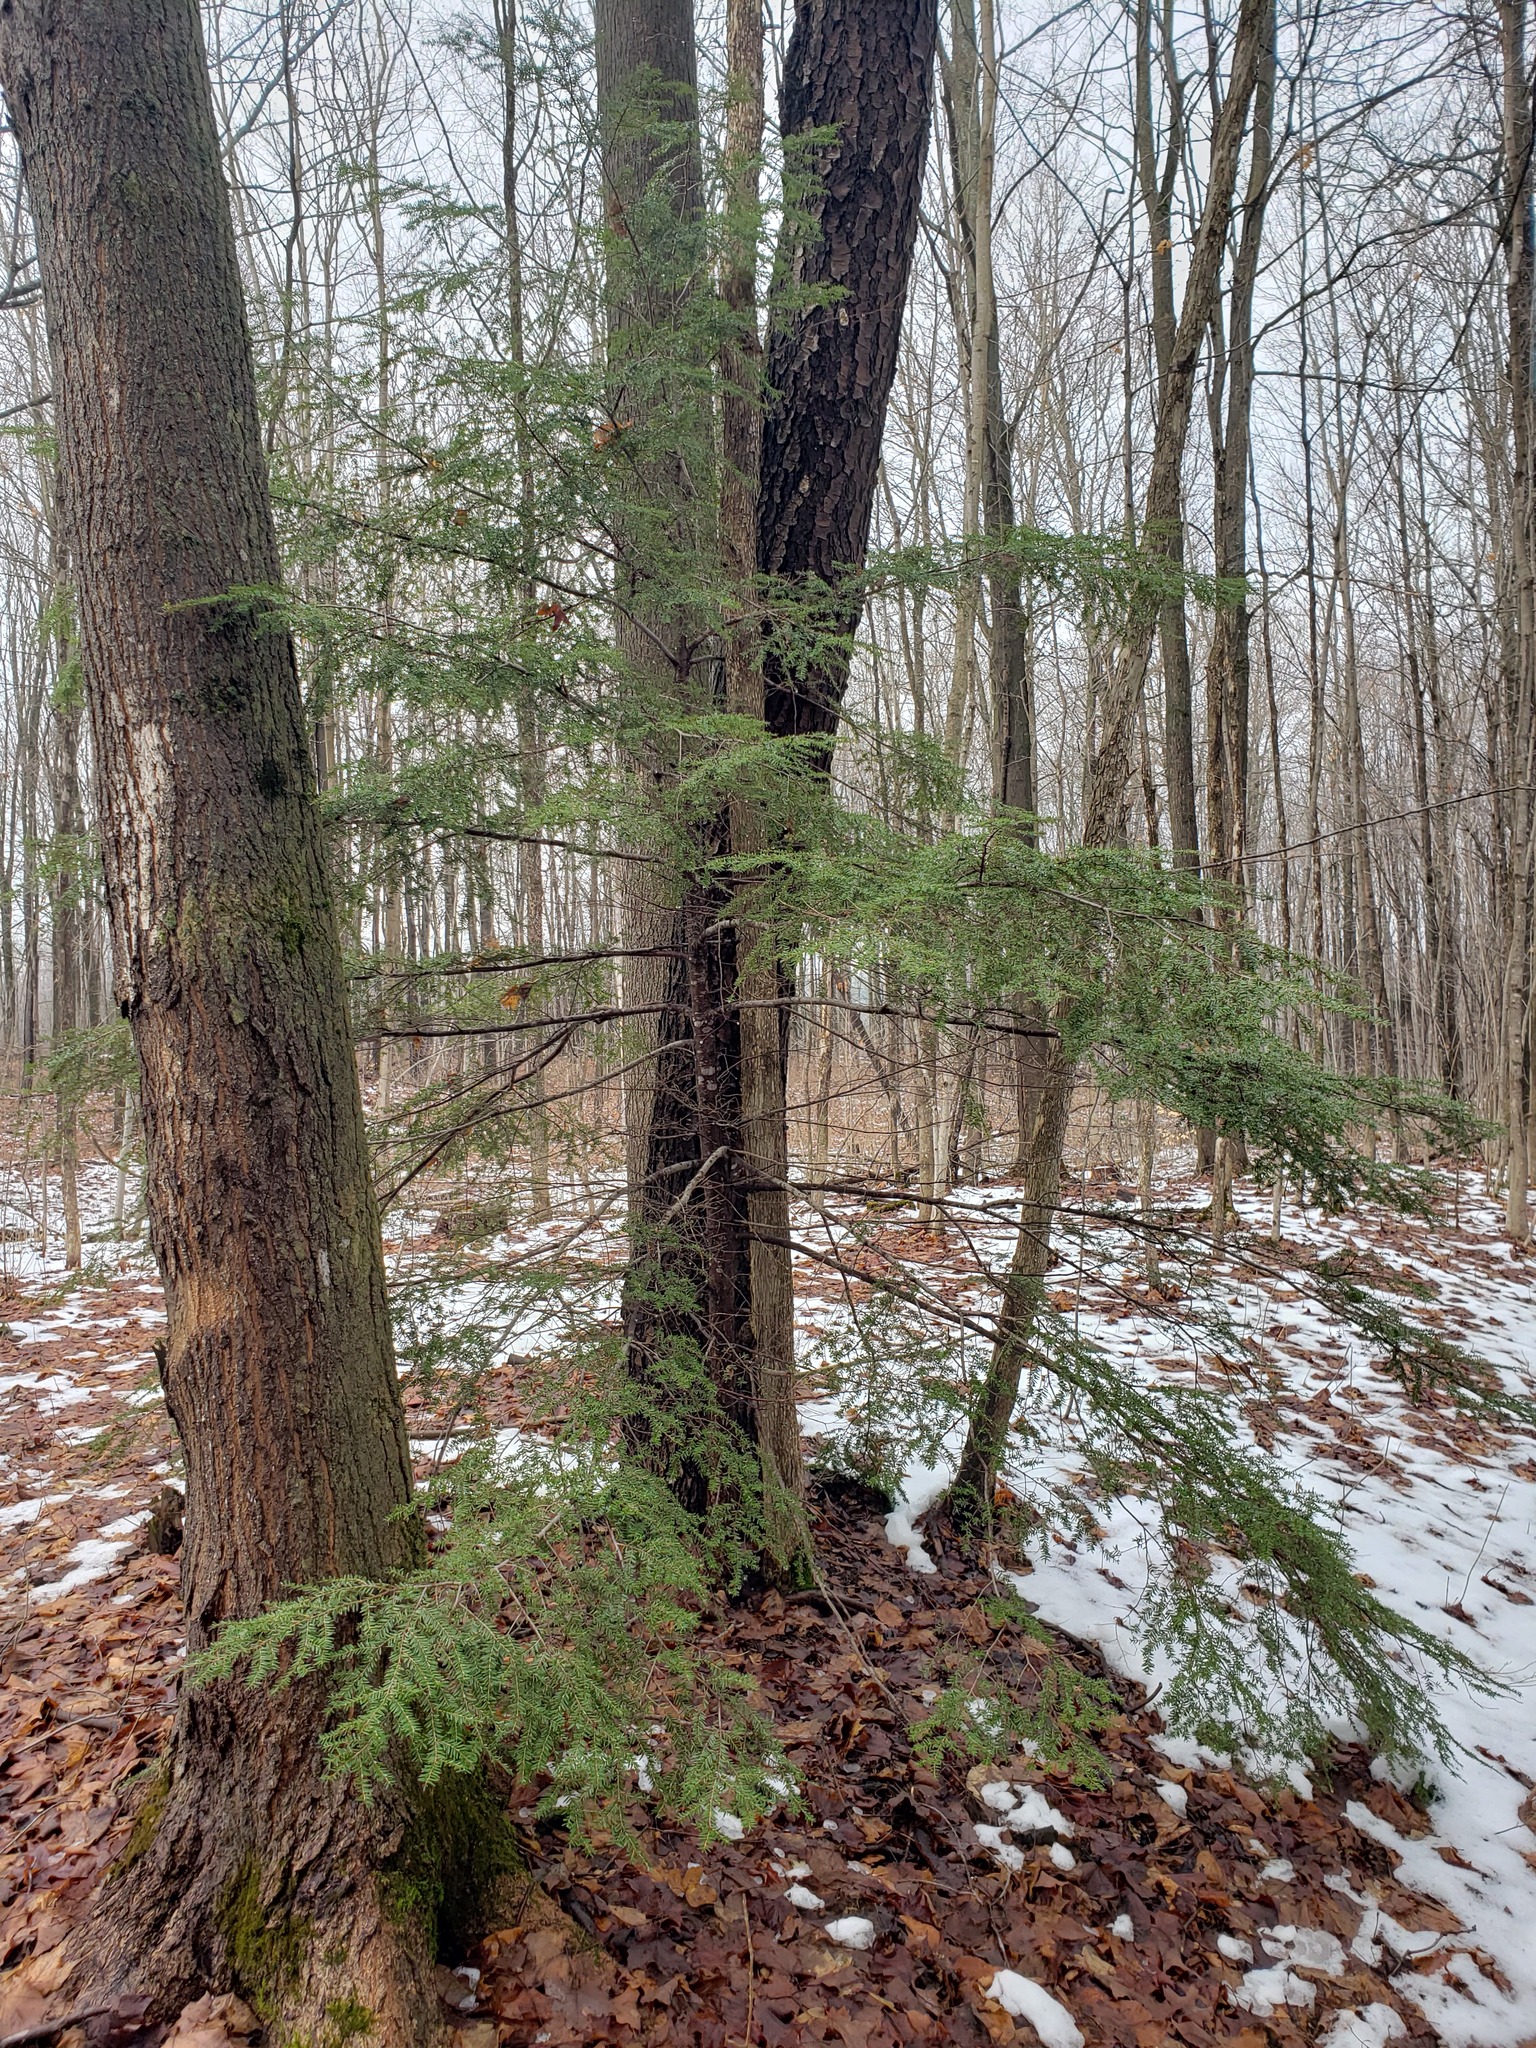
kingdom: Plantae
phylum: Tracheophyta
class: Pinopsida
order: Pinales
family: Pinaceae
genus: Tsuga
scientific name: Tsuga canadensis
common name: Eastern hemlock
